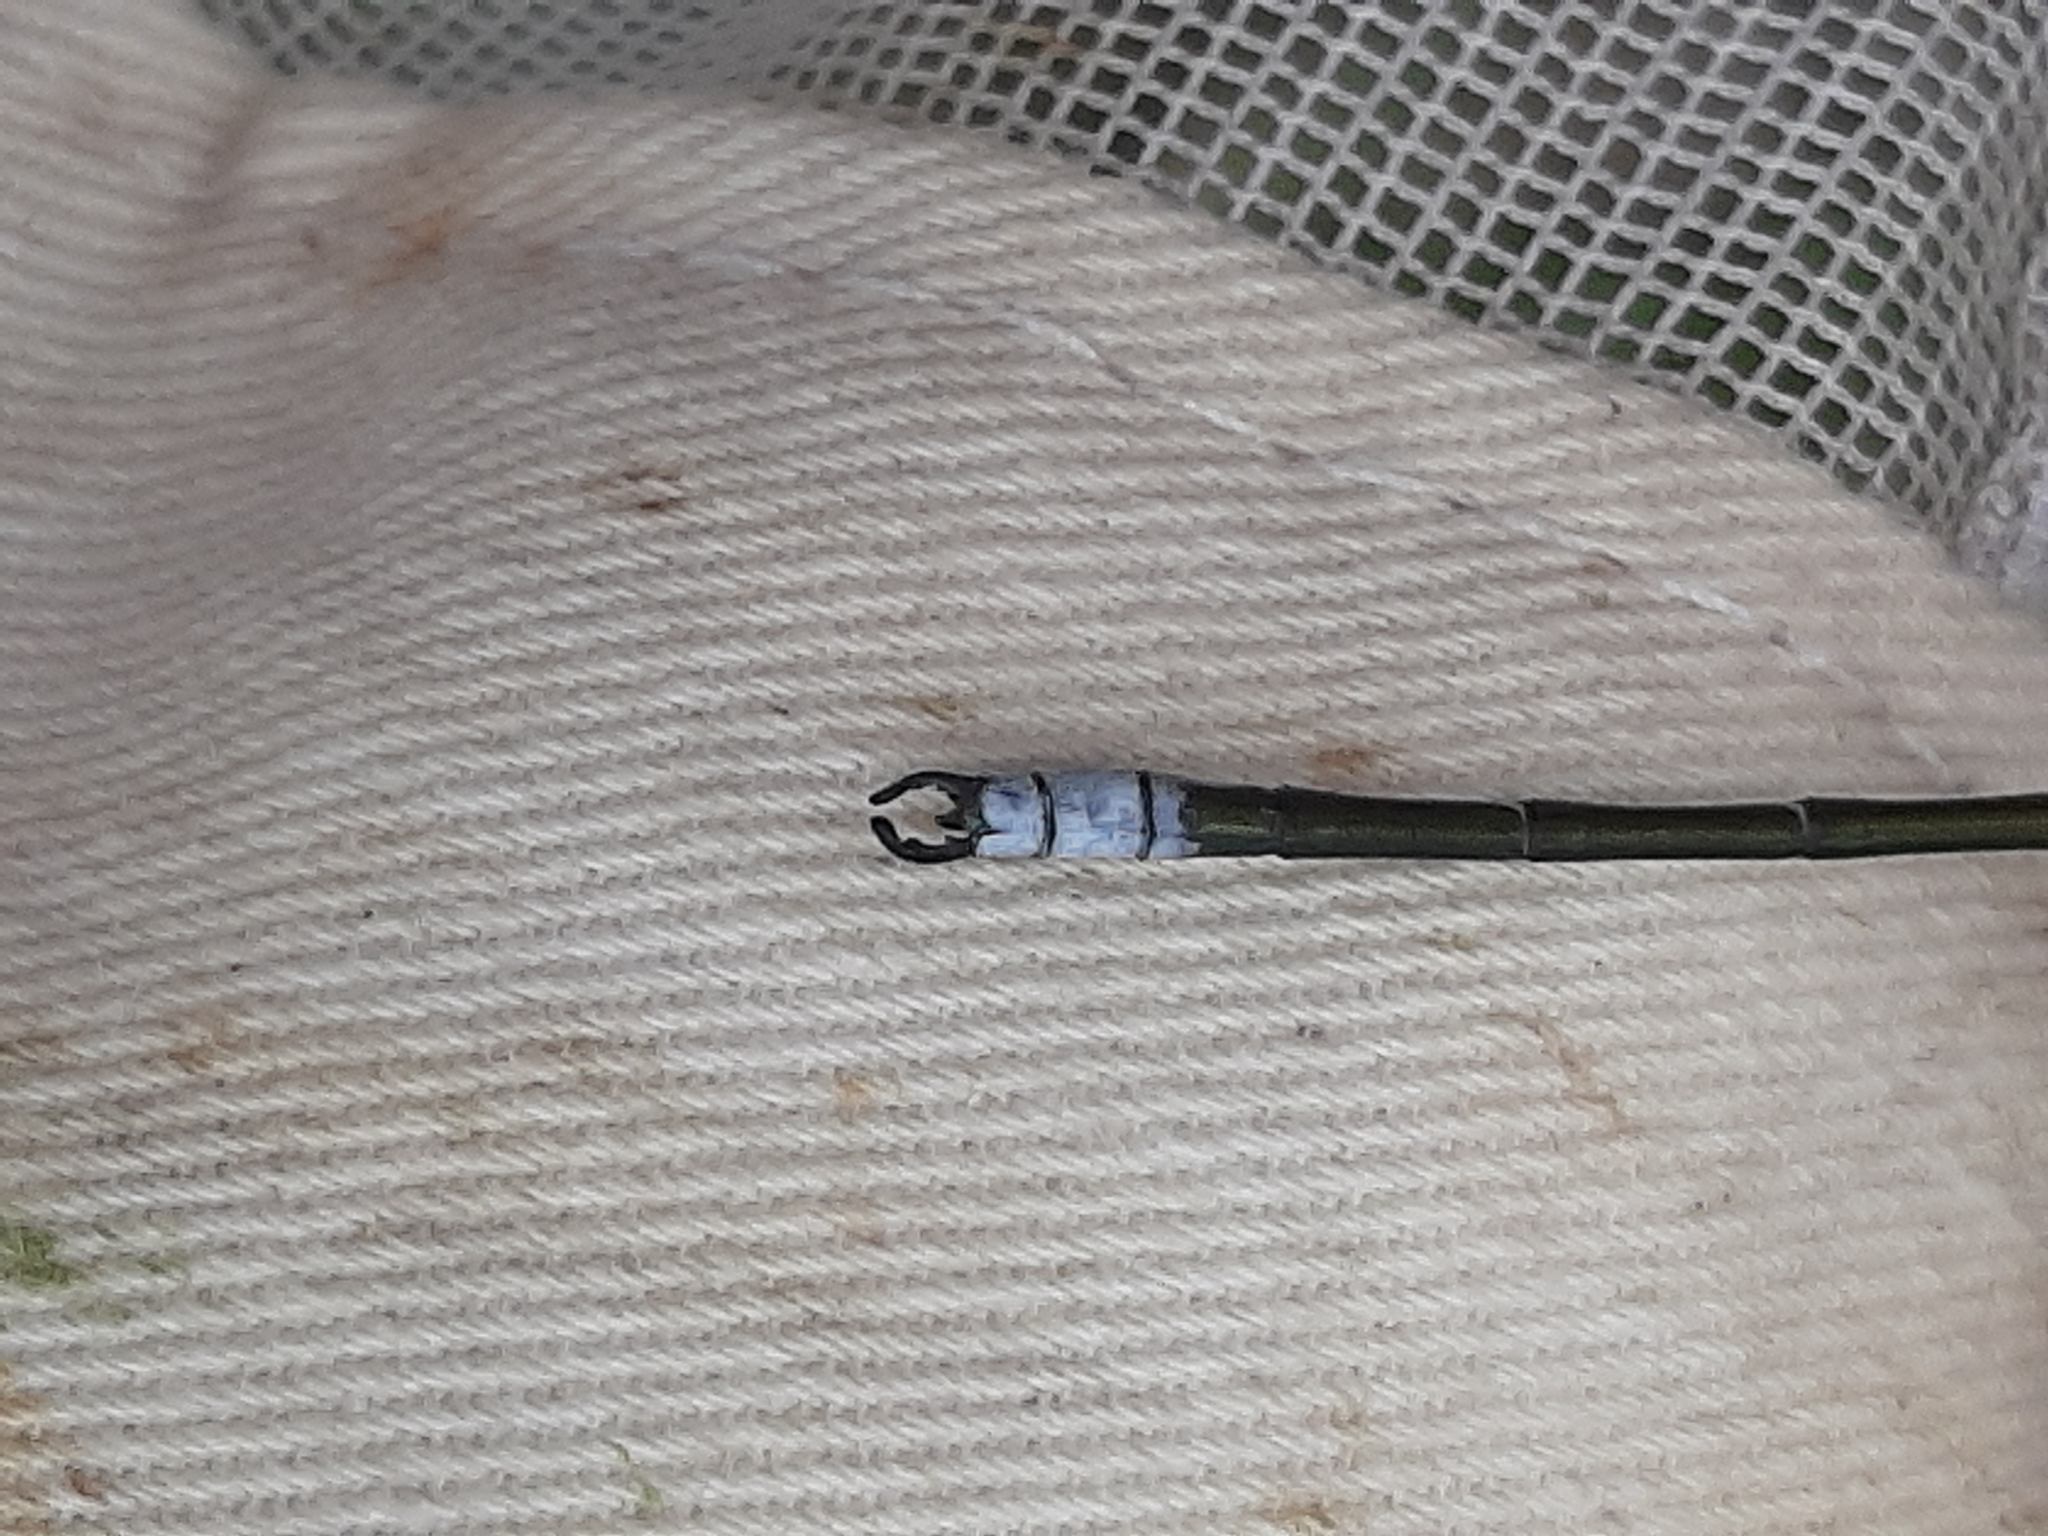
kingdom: Animalia
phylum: Arthropoda
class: Insecta
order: Odonata
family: Lestidae
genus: Lestes
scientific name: Lestes eurinus
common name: Amber-winged spreadwing
